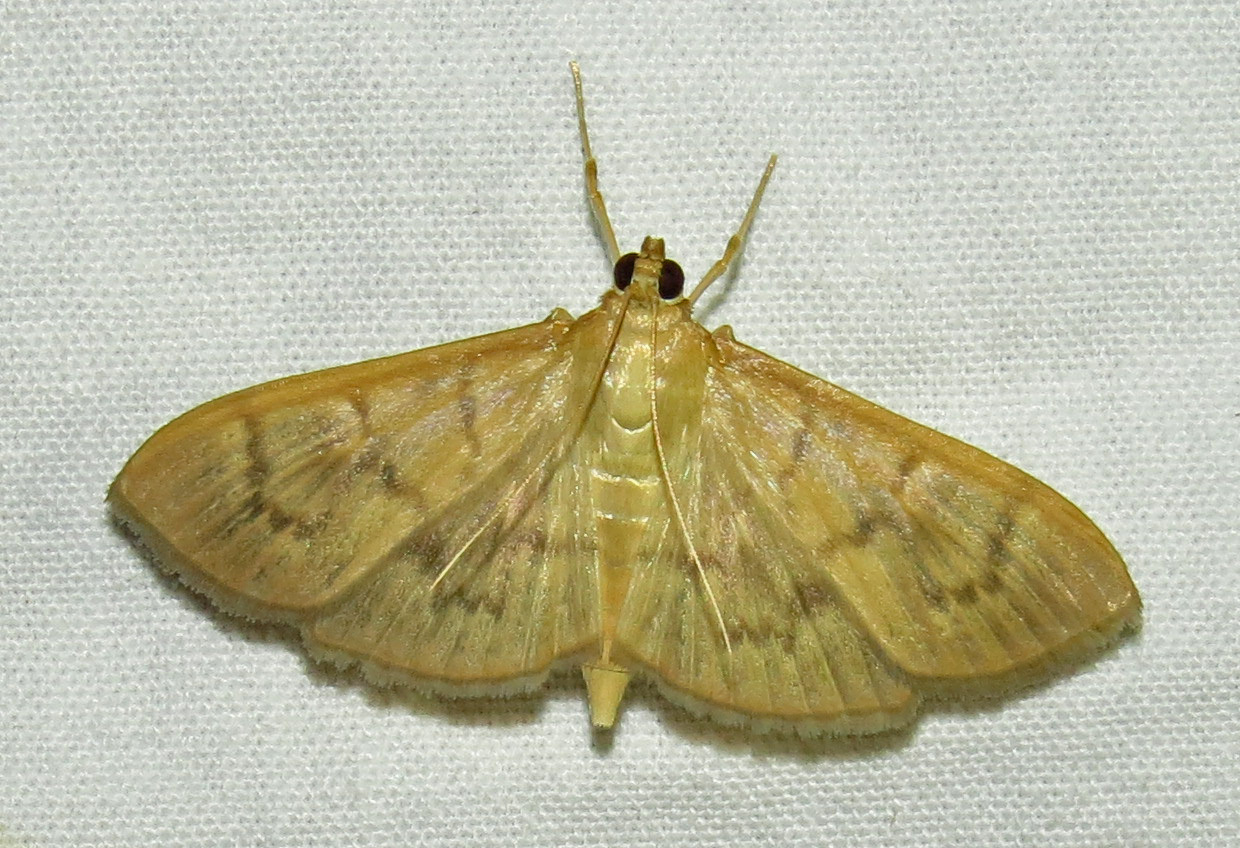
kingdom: Animalia
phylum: Arthropoda
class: Insecta
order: Lepidoptera
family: Crambidae
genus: Pleuroptya
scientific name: Pleuroptya silicalis
